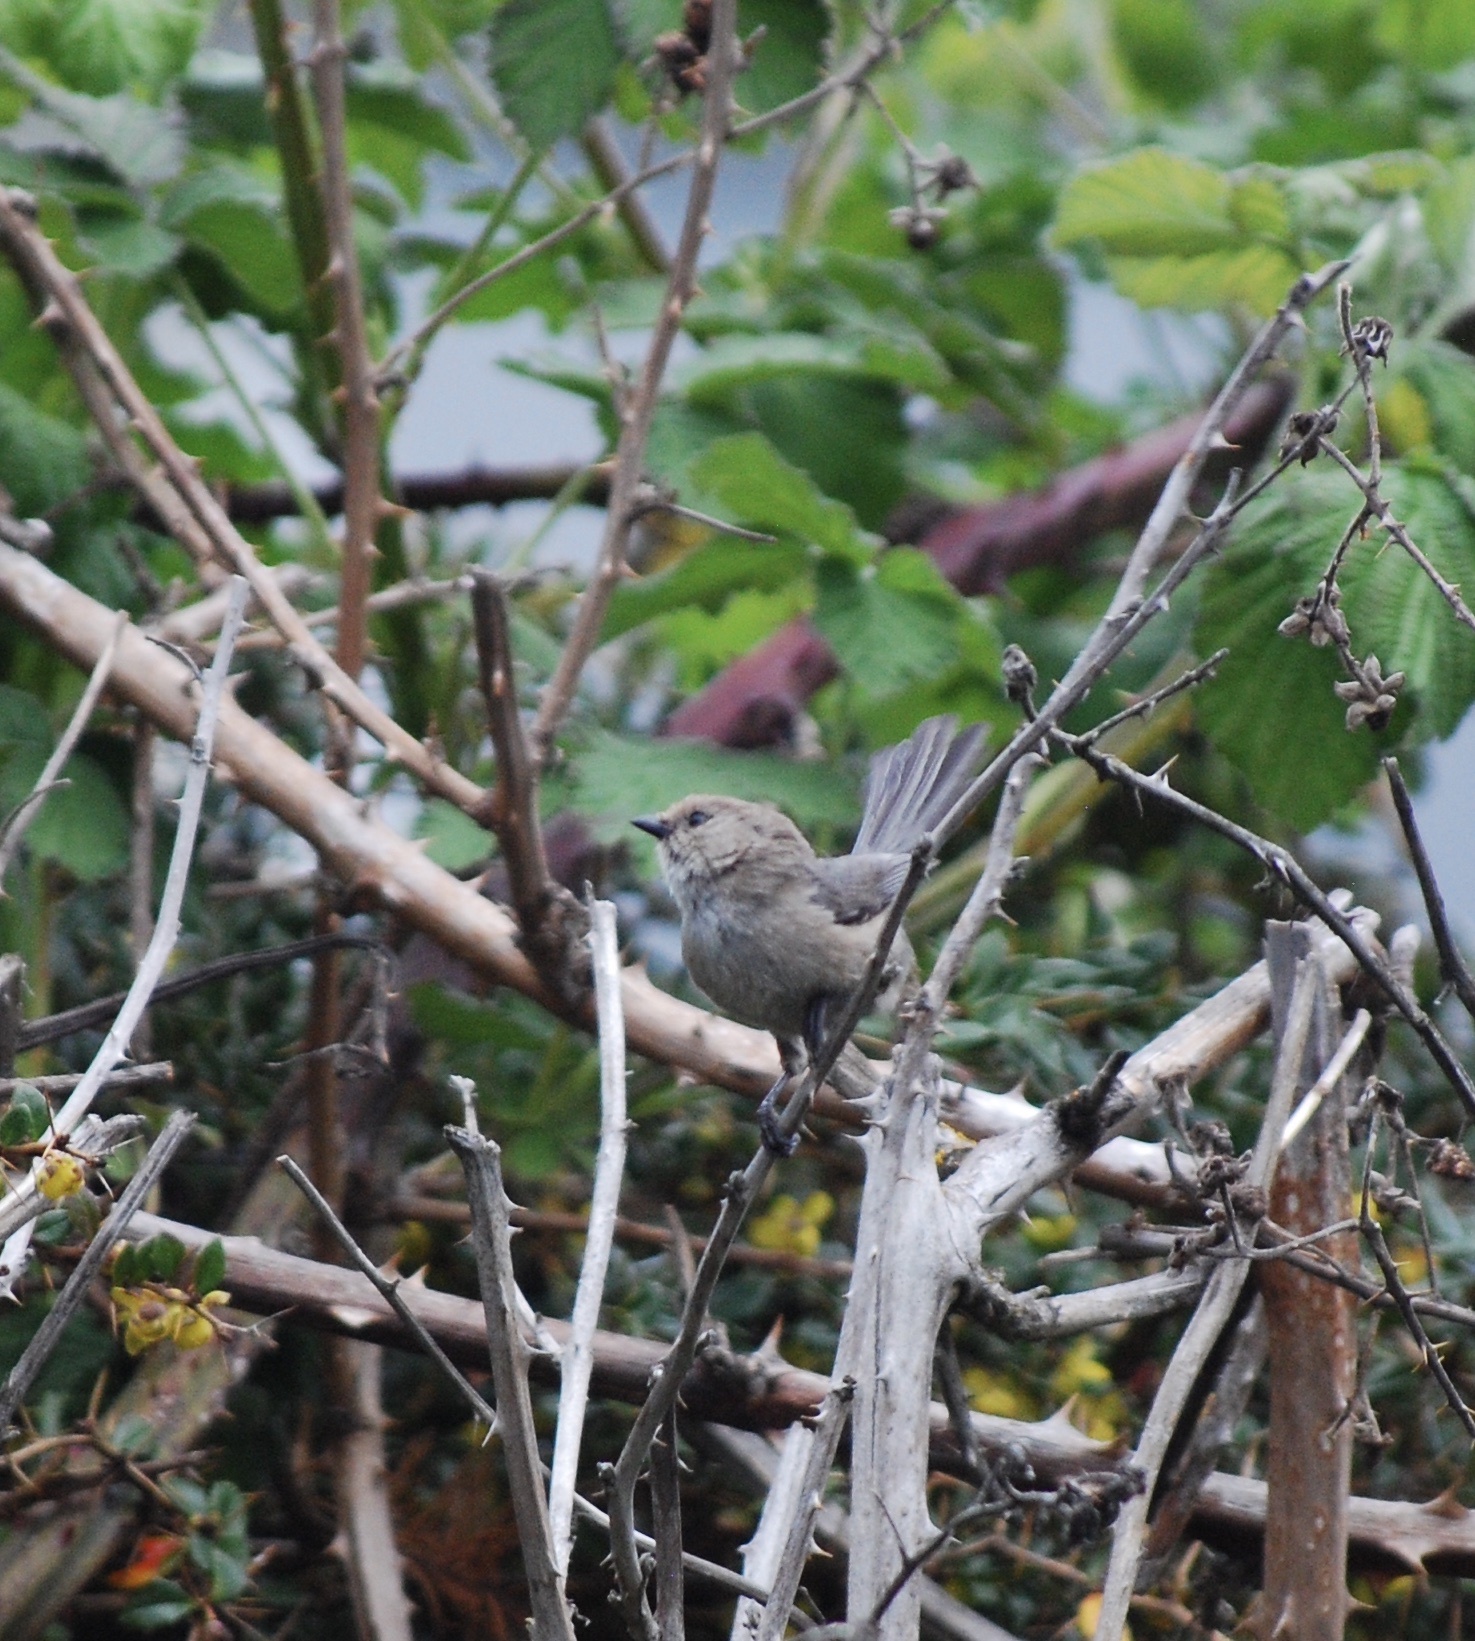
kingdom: Animalia
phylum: Chordata
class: Aves
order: Passeriformes
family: Aegithalidae
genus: Psaltriparus
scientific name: Psaltriparus minimus
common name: American bushtit
